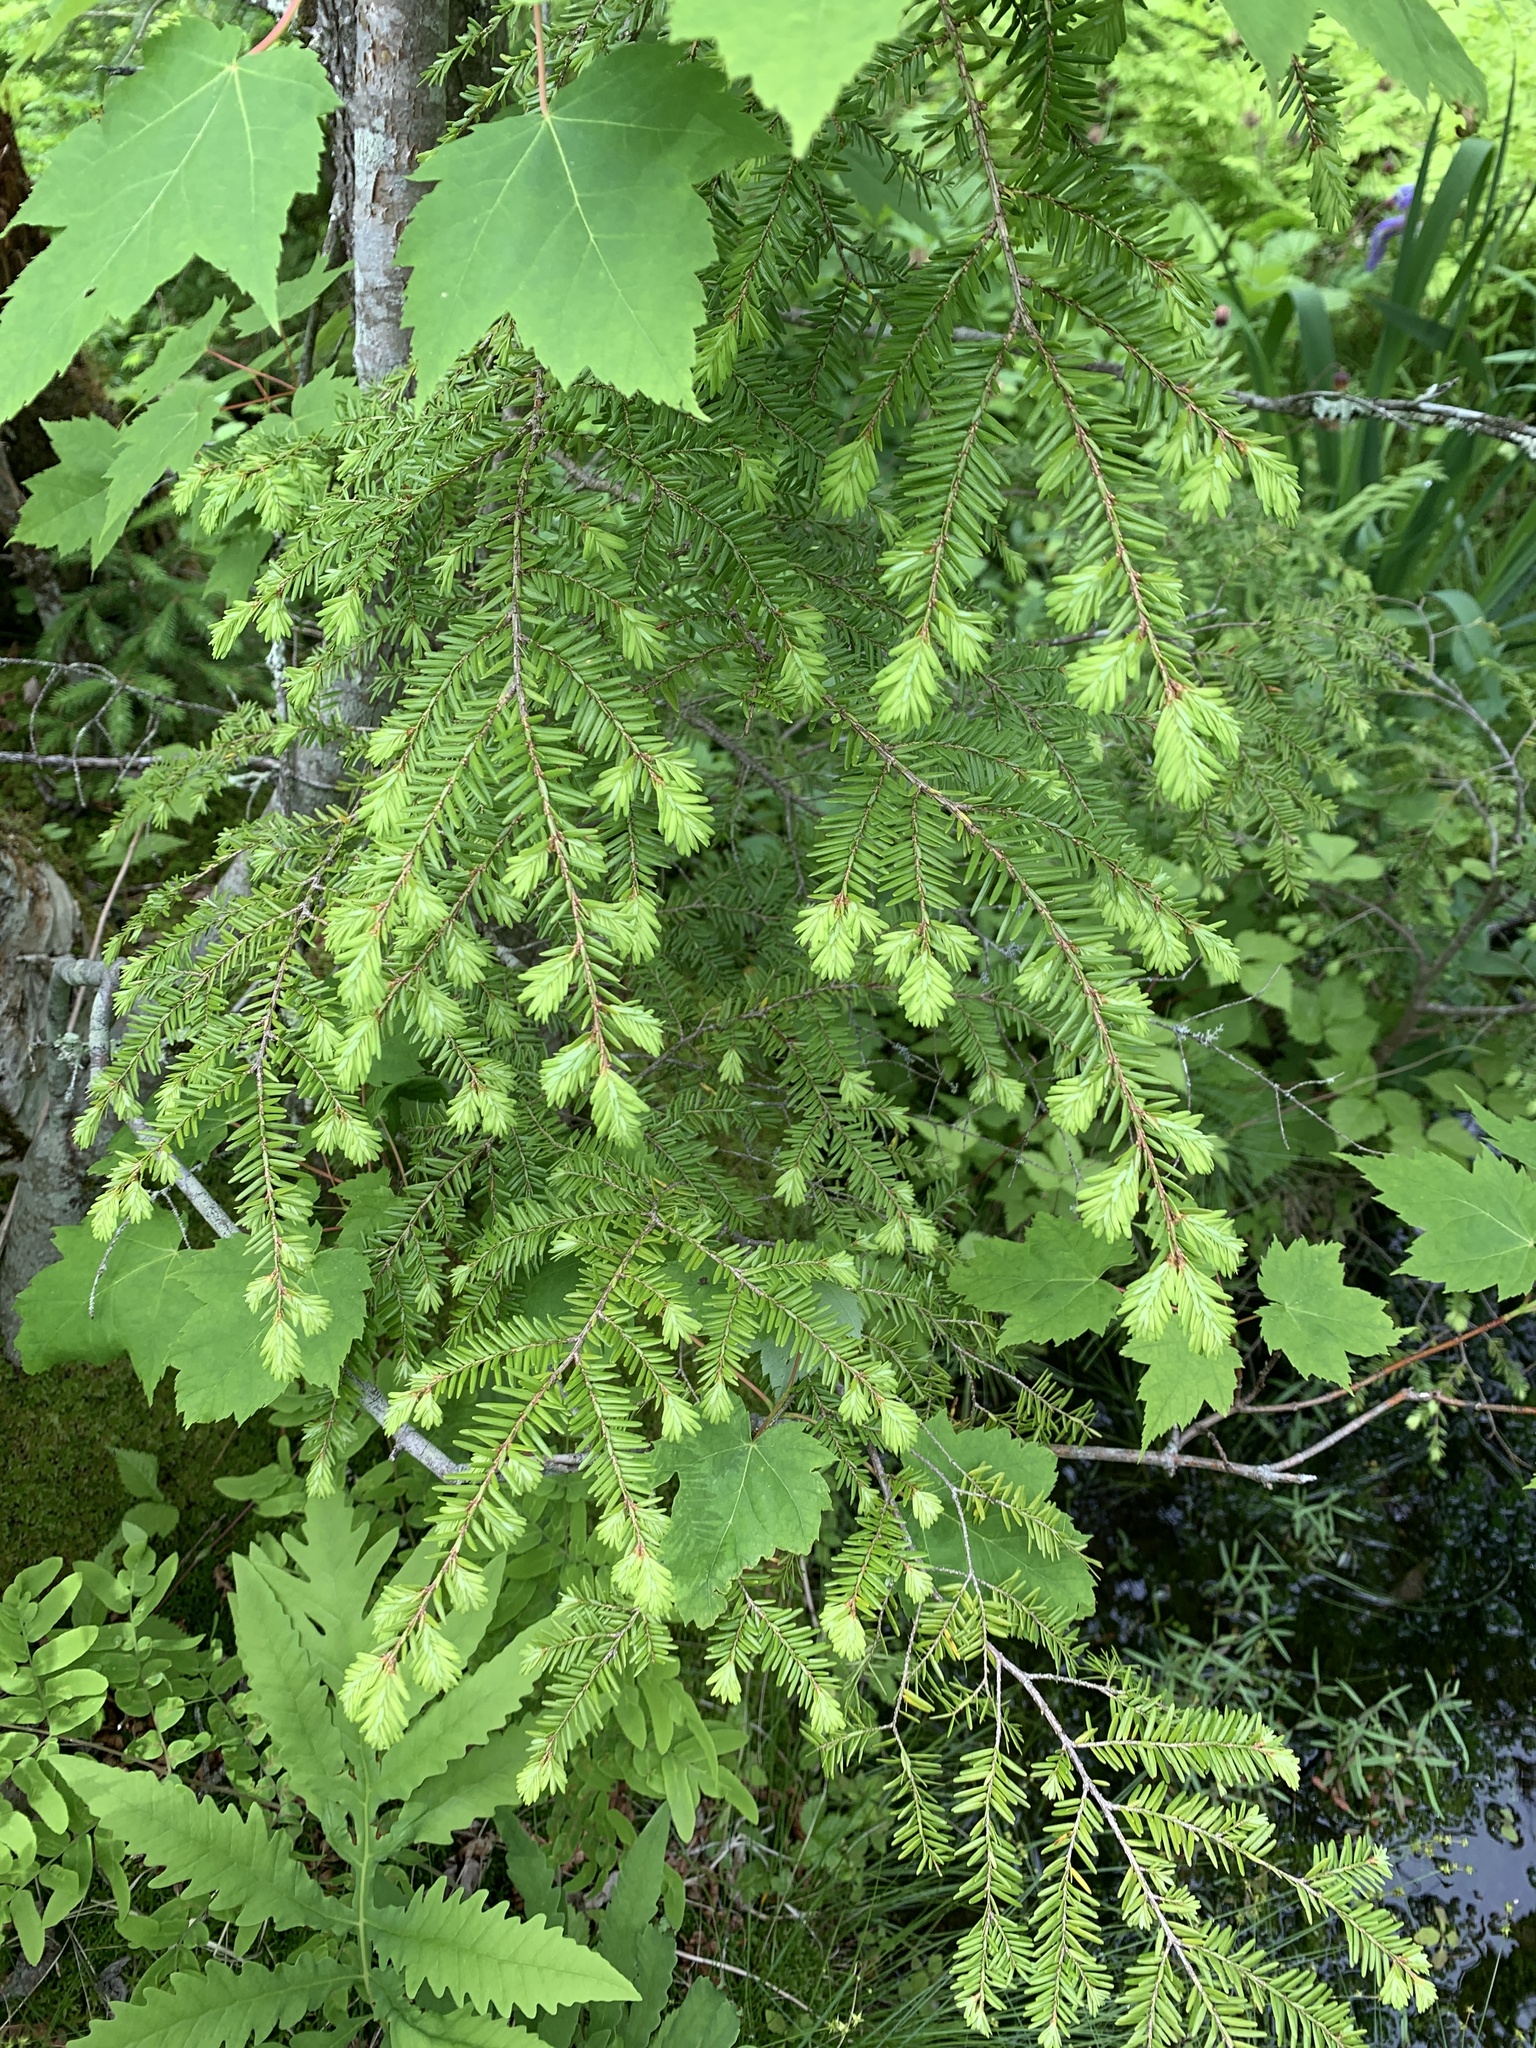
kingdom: Plantae
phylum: Tracheophyta
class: Pinopsida
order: Pinales
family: Pinaceae
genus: Tsuga
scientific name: Tsuga canadensis
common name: Eastern hemlock
